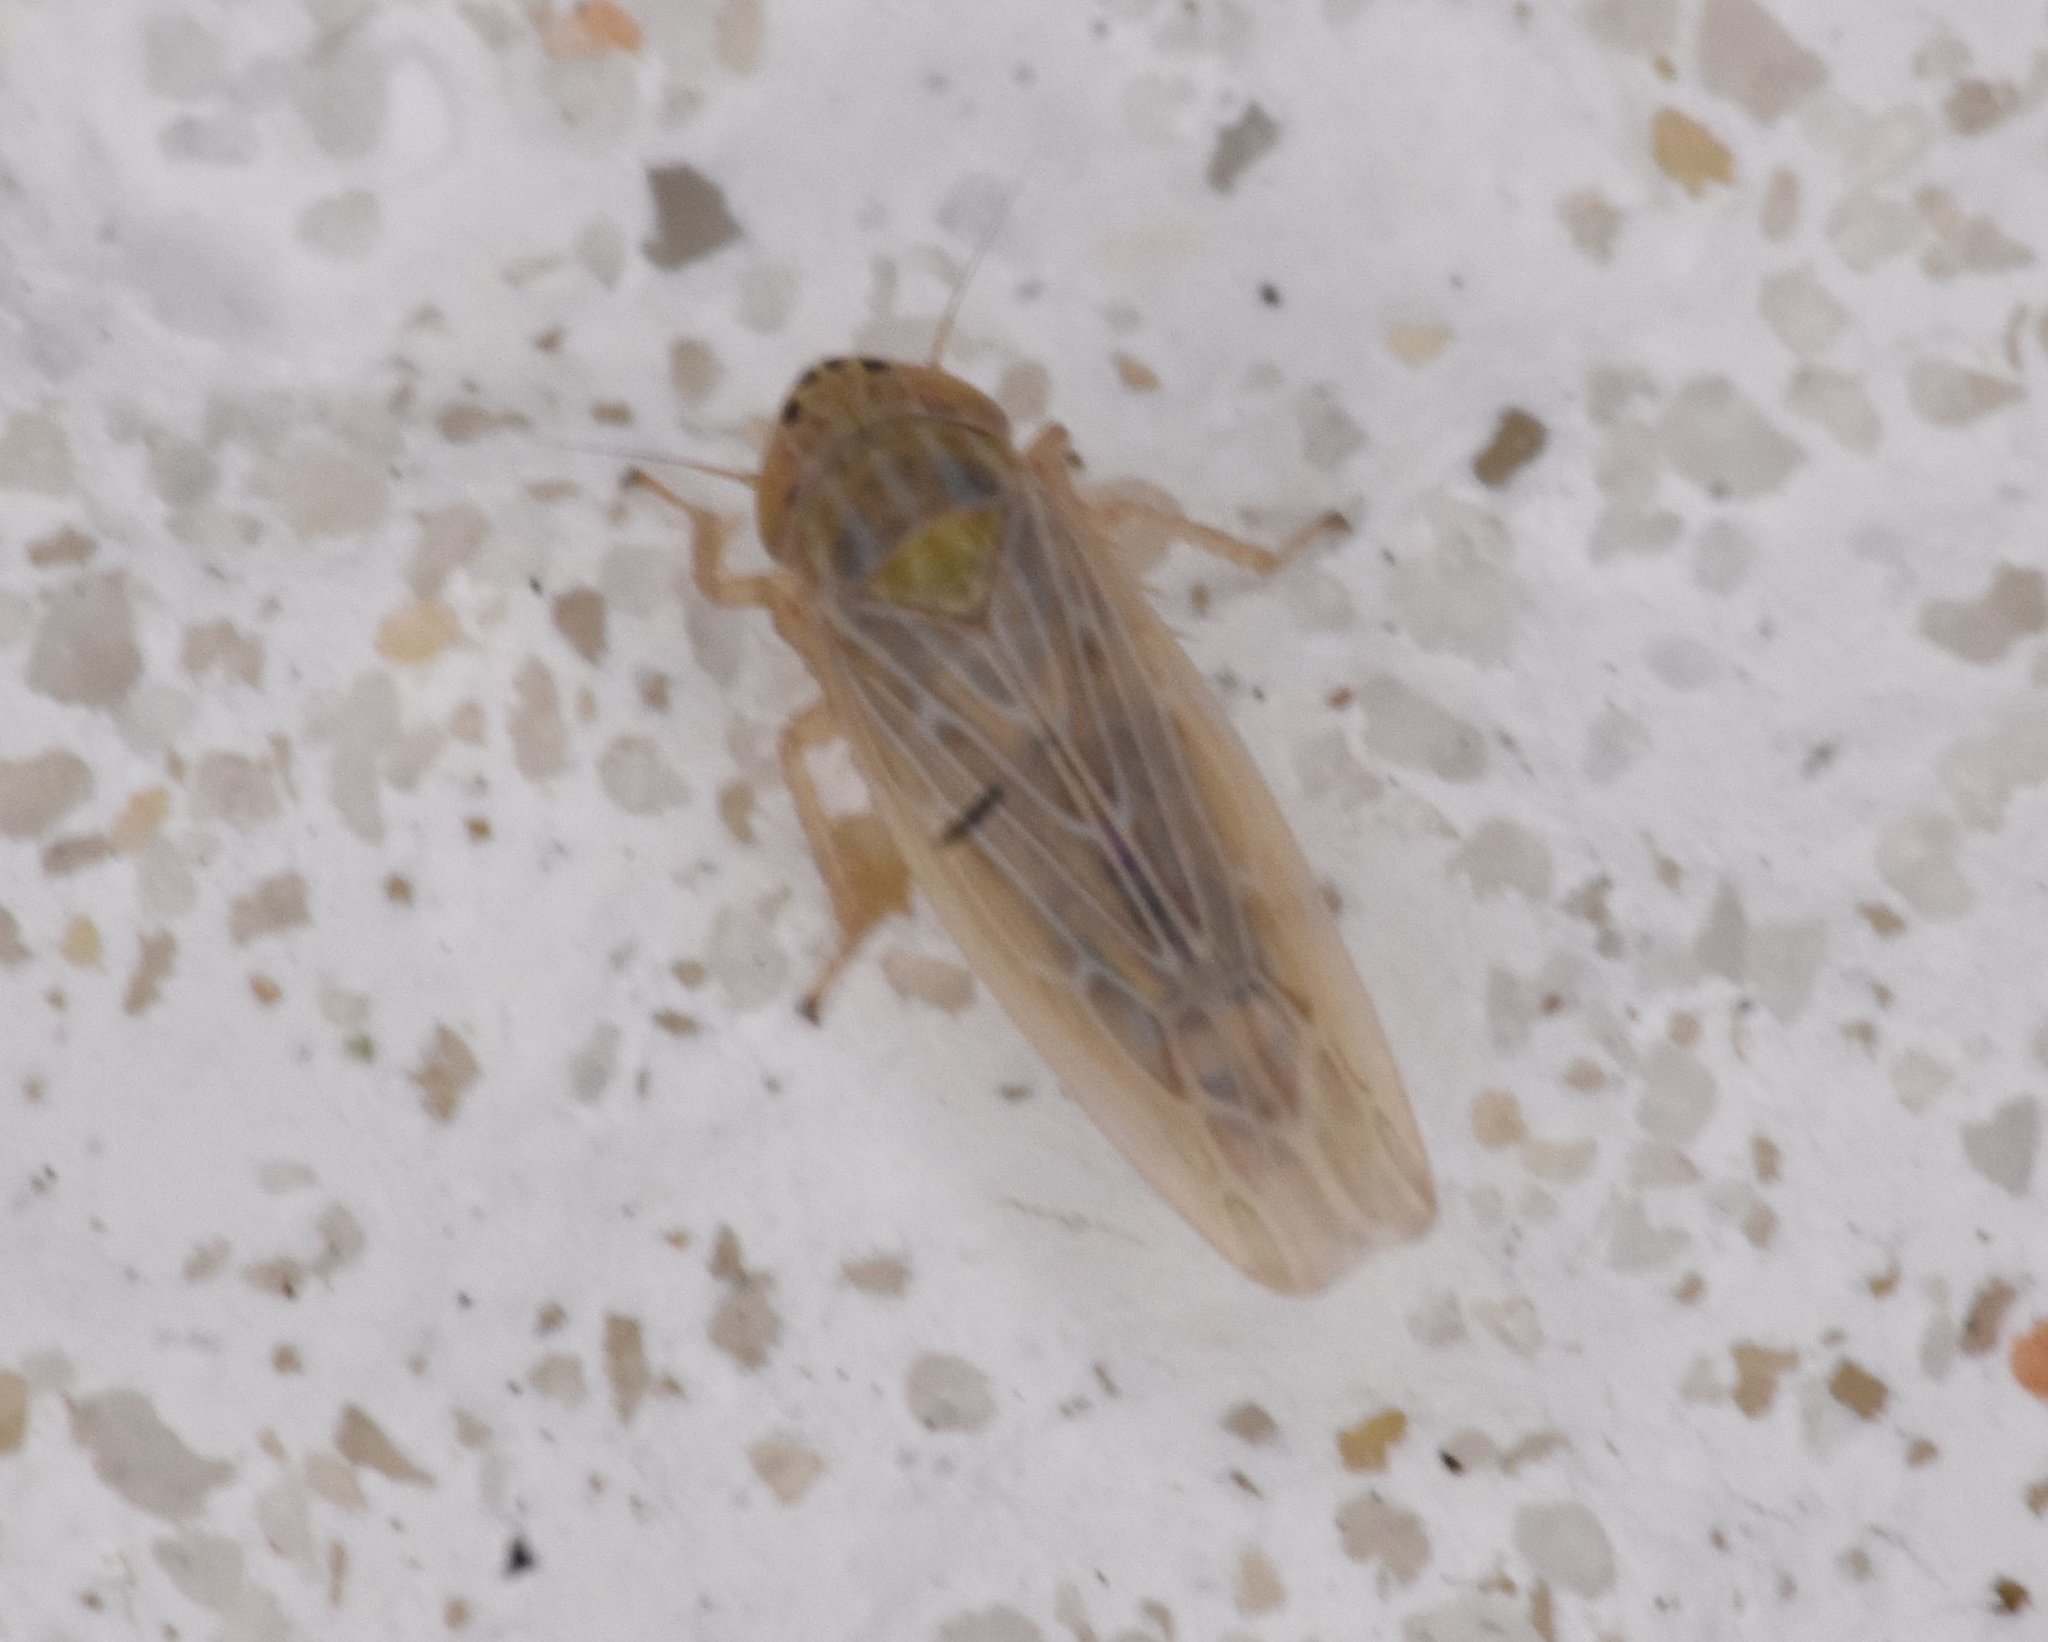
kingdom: Animalia
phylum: Arthropoda
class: Insecta
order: Hemiptera
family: Cicadellidae
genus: Graminella
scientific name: Graminella sonora
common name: Lesser lawn leafhopper
